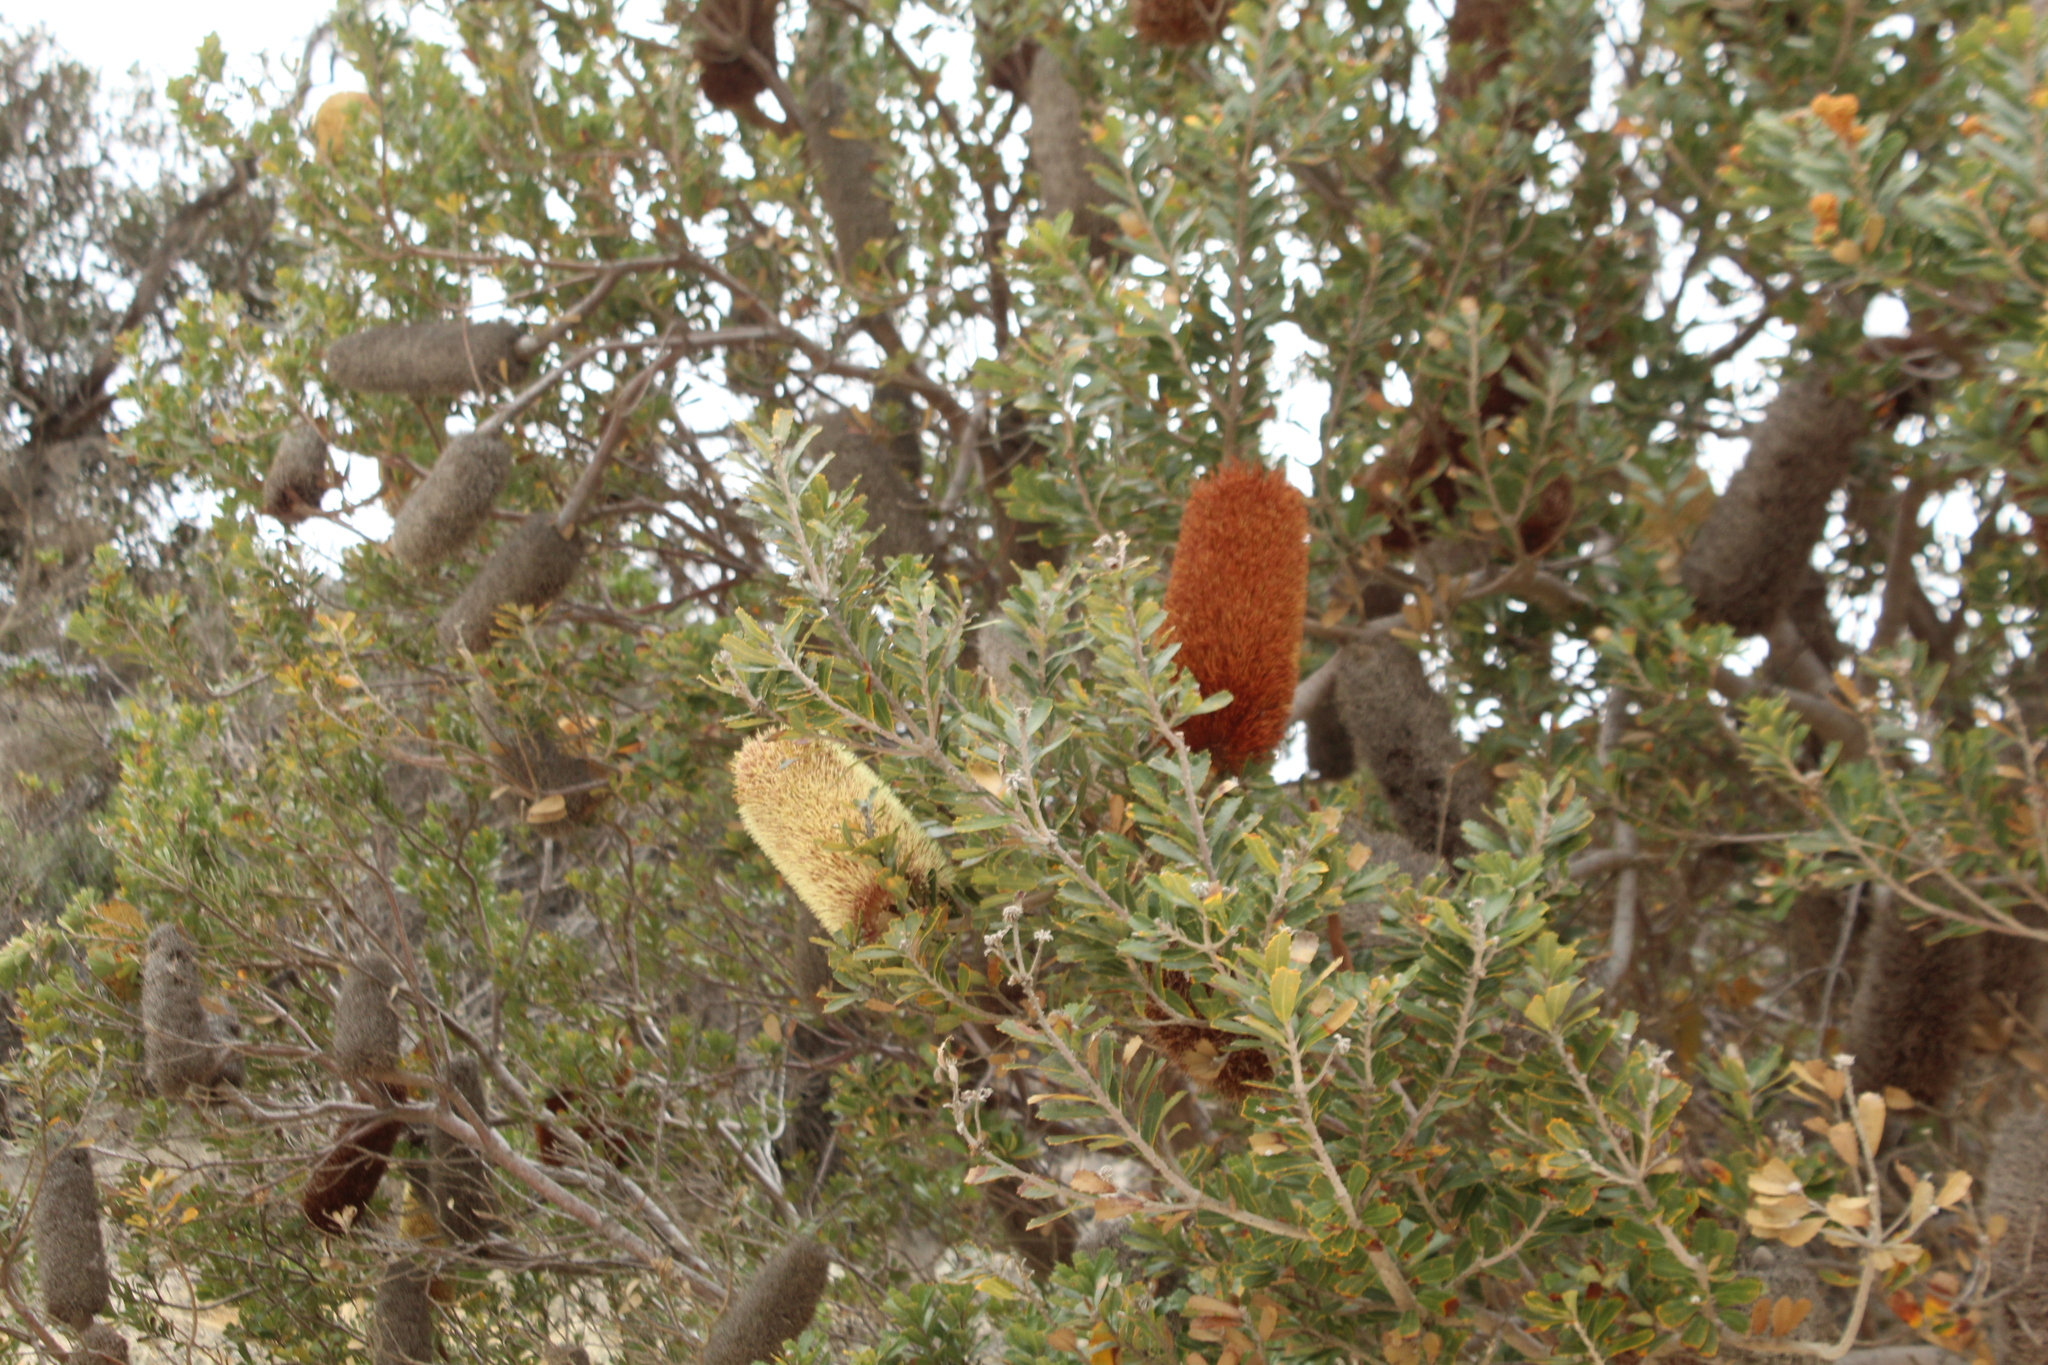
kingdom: Plantae
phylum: Tracheophyta
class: Magnoliopsida
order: Proteales
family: Proteaceae
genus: Banksia
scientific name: Banksia praemorsa
